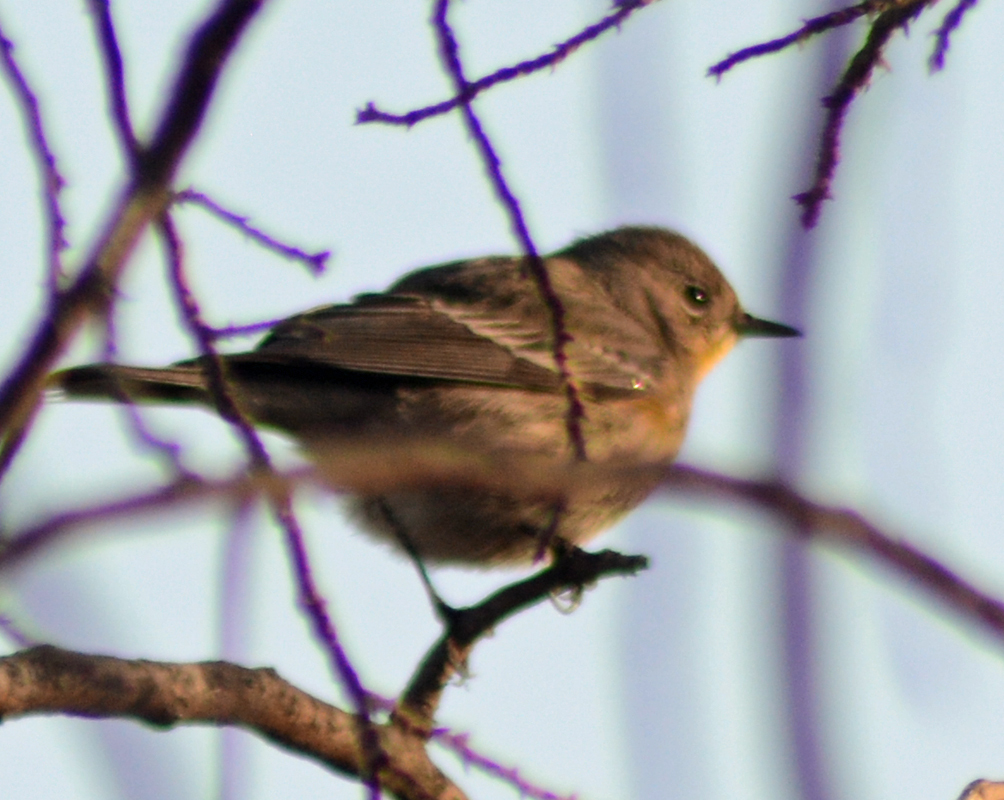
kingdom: Animalia
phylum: Chordata
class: Aves
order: Passeriformes
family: Parulidae
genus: Setophaga
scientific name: Setophaga coronata
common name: Myrtle warbler
